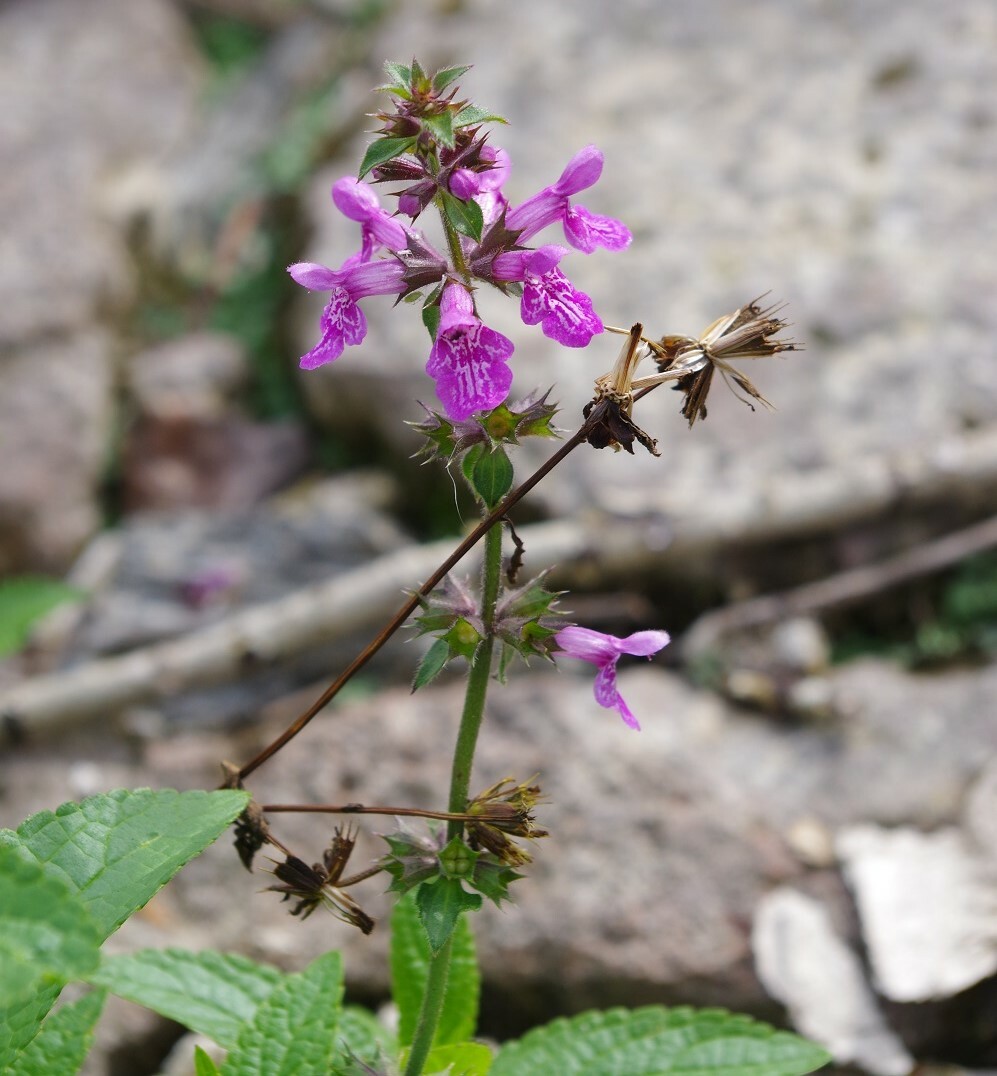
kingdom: Plantae
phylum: Tracheophyta
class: Magnoliopsida
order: Lamiales
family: Lamiaceae
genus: Stachys
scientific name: Stachys palustris
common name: Marsh woundwort
